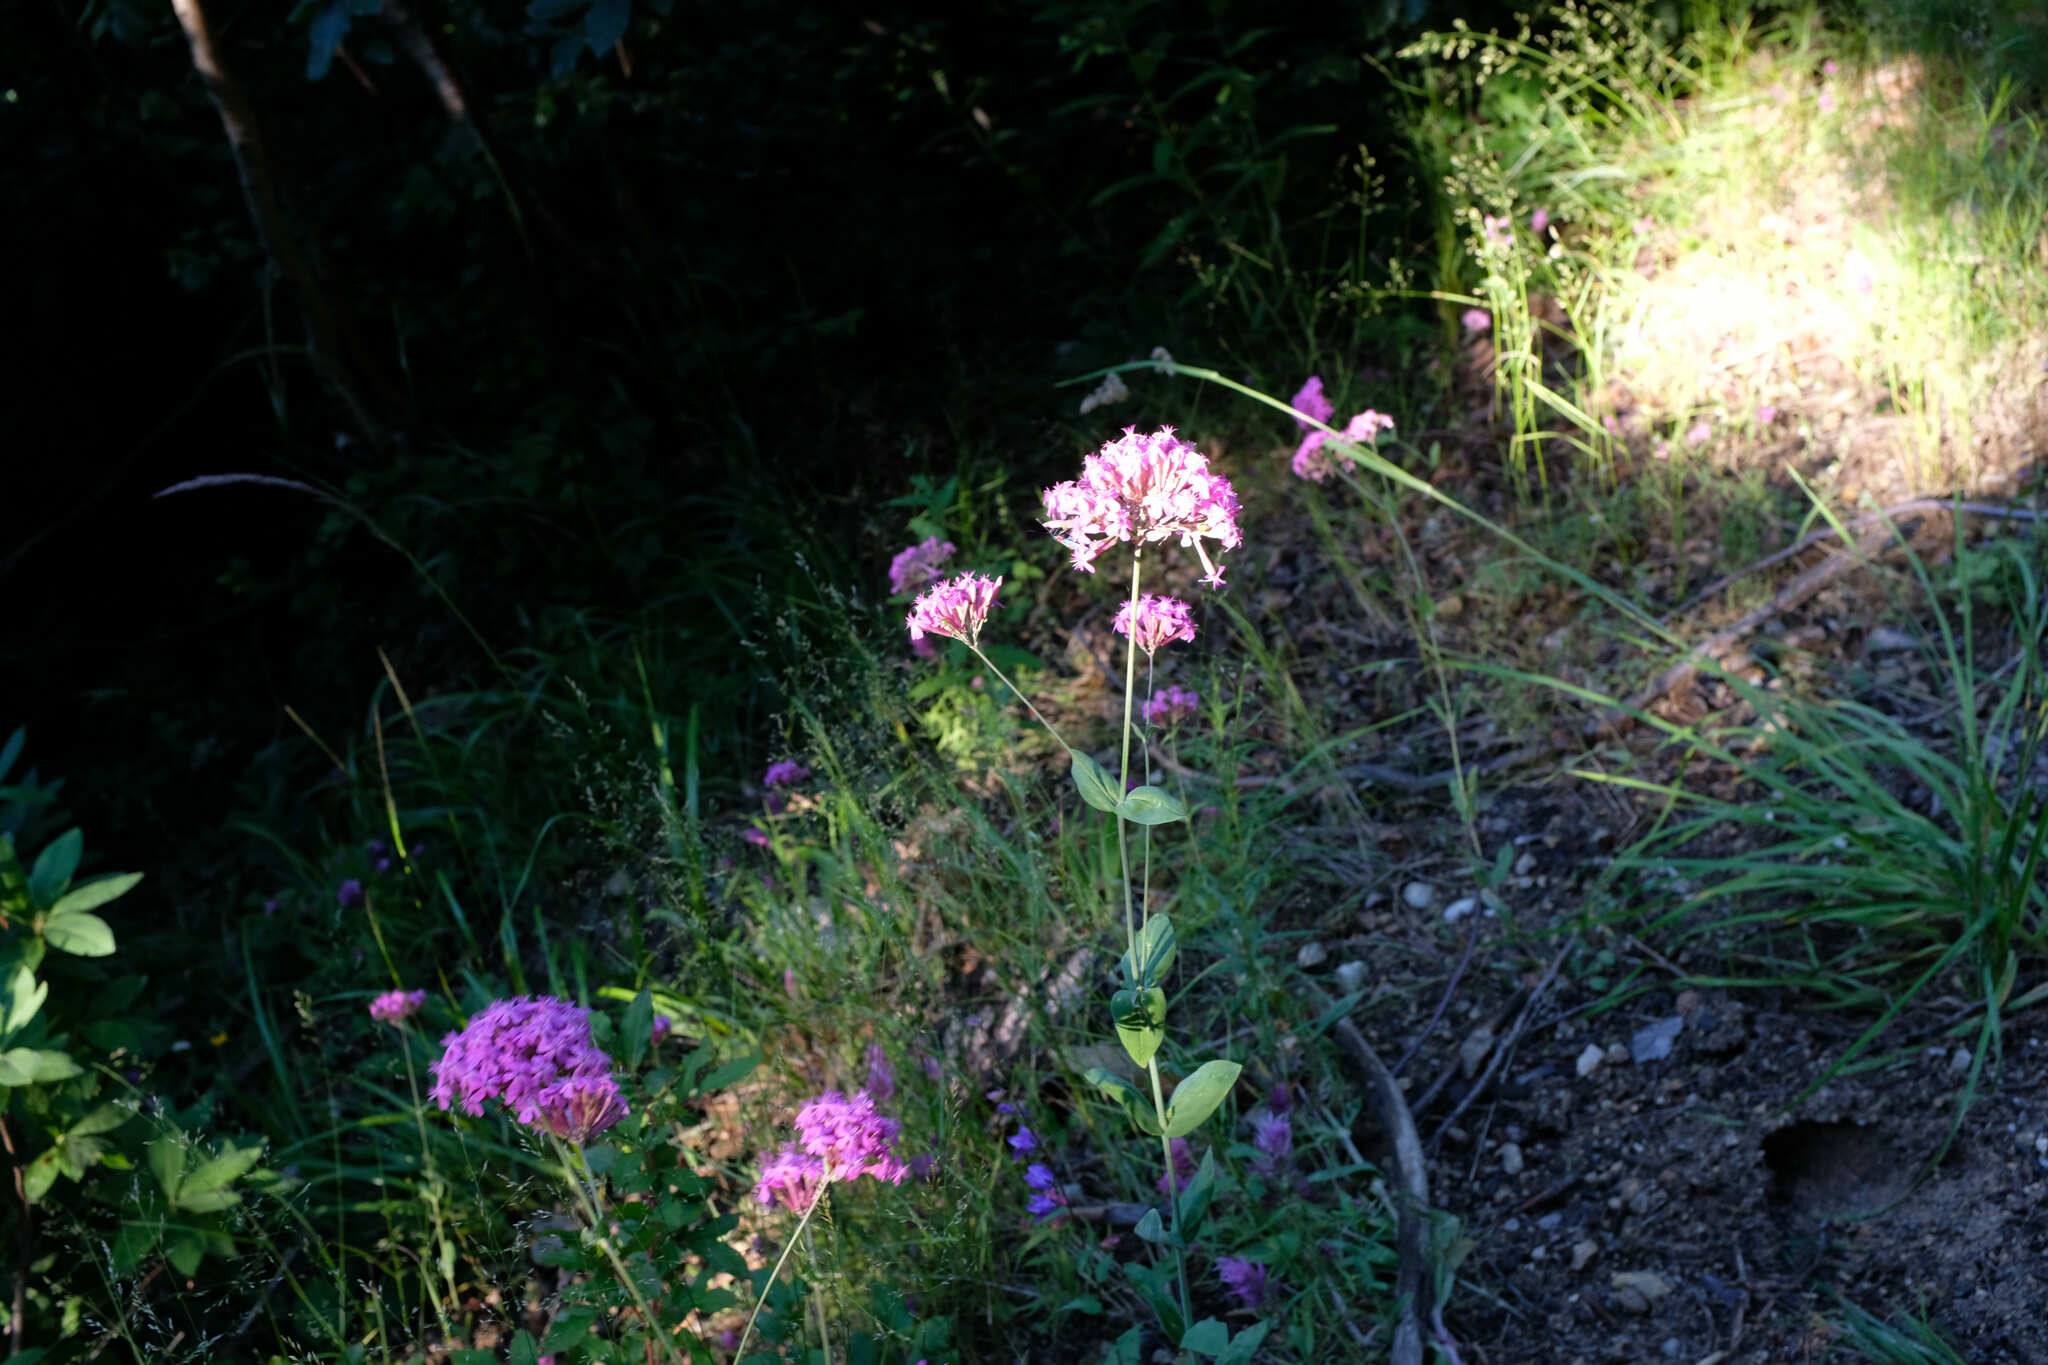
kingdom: Plantae
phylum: Tracheophyta
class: Magnoliopsida
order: Caryophyllales
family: Caryophyllaceae
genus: Atocion
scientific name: Atocion compactum
